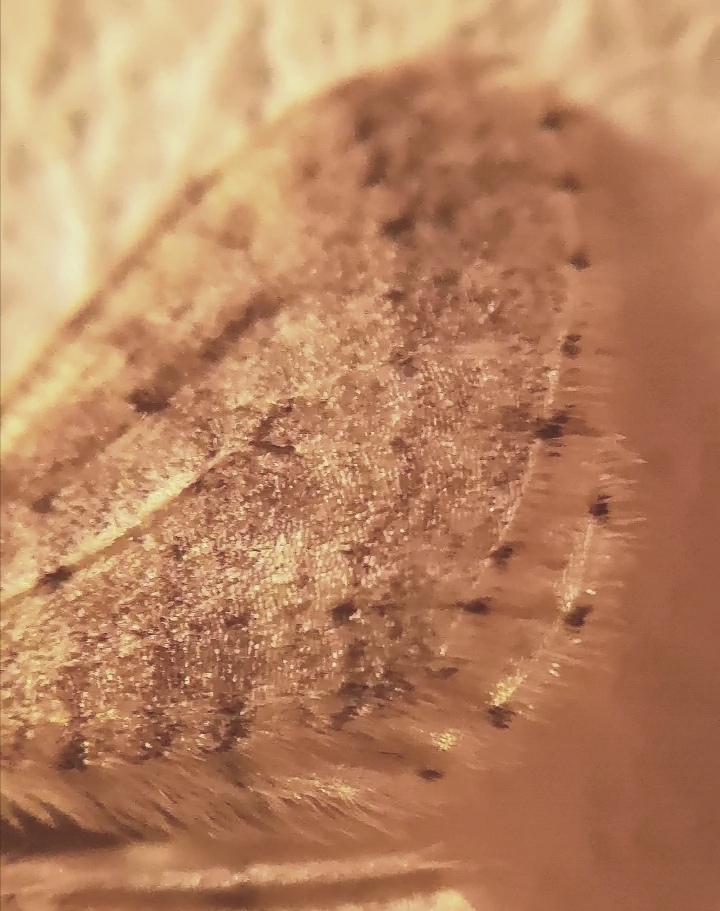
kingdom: Animalia
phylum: Arthropoda
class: Insecta
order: Lepidoptera
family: Geometridae
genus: Operophtera
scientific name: Operophtera brumata
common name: Winter moth
